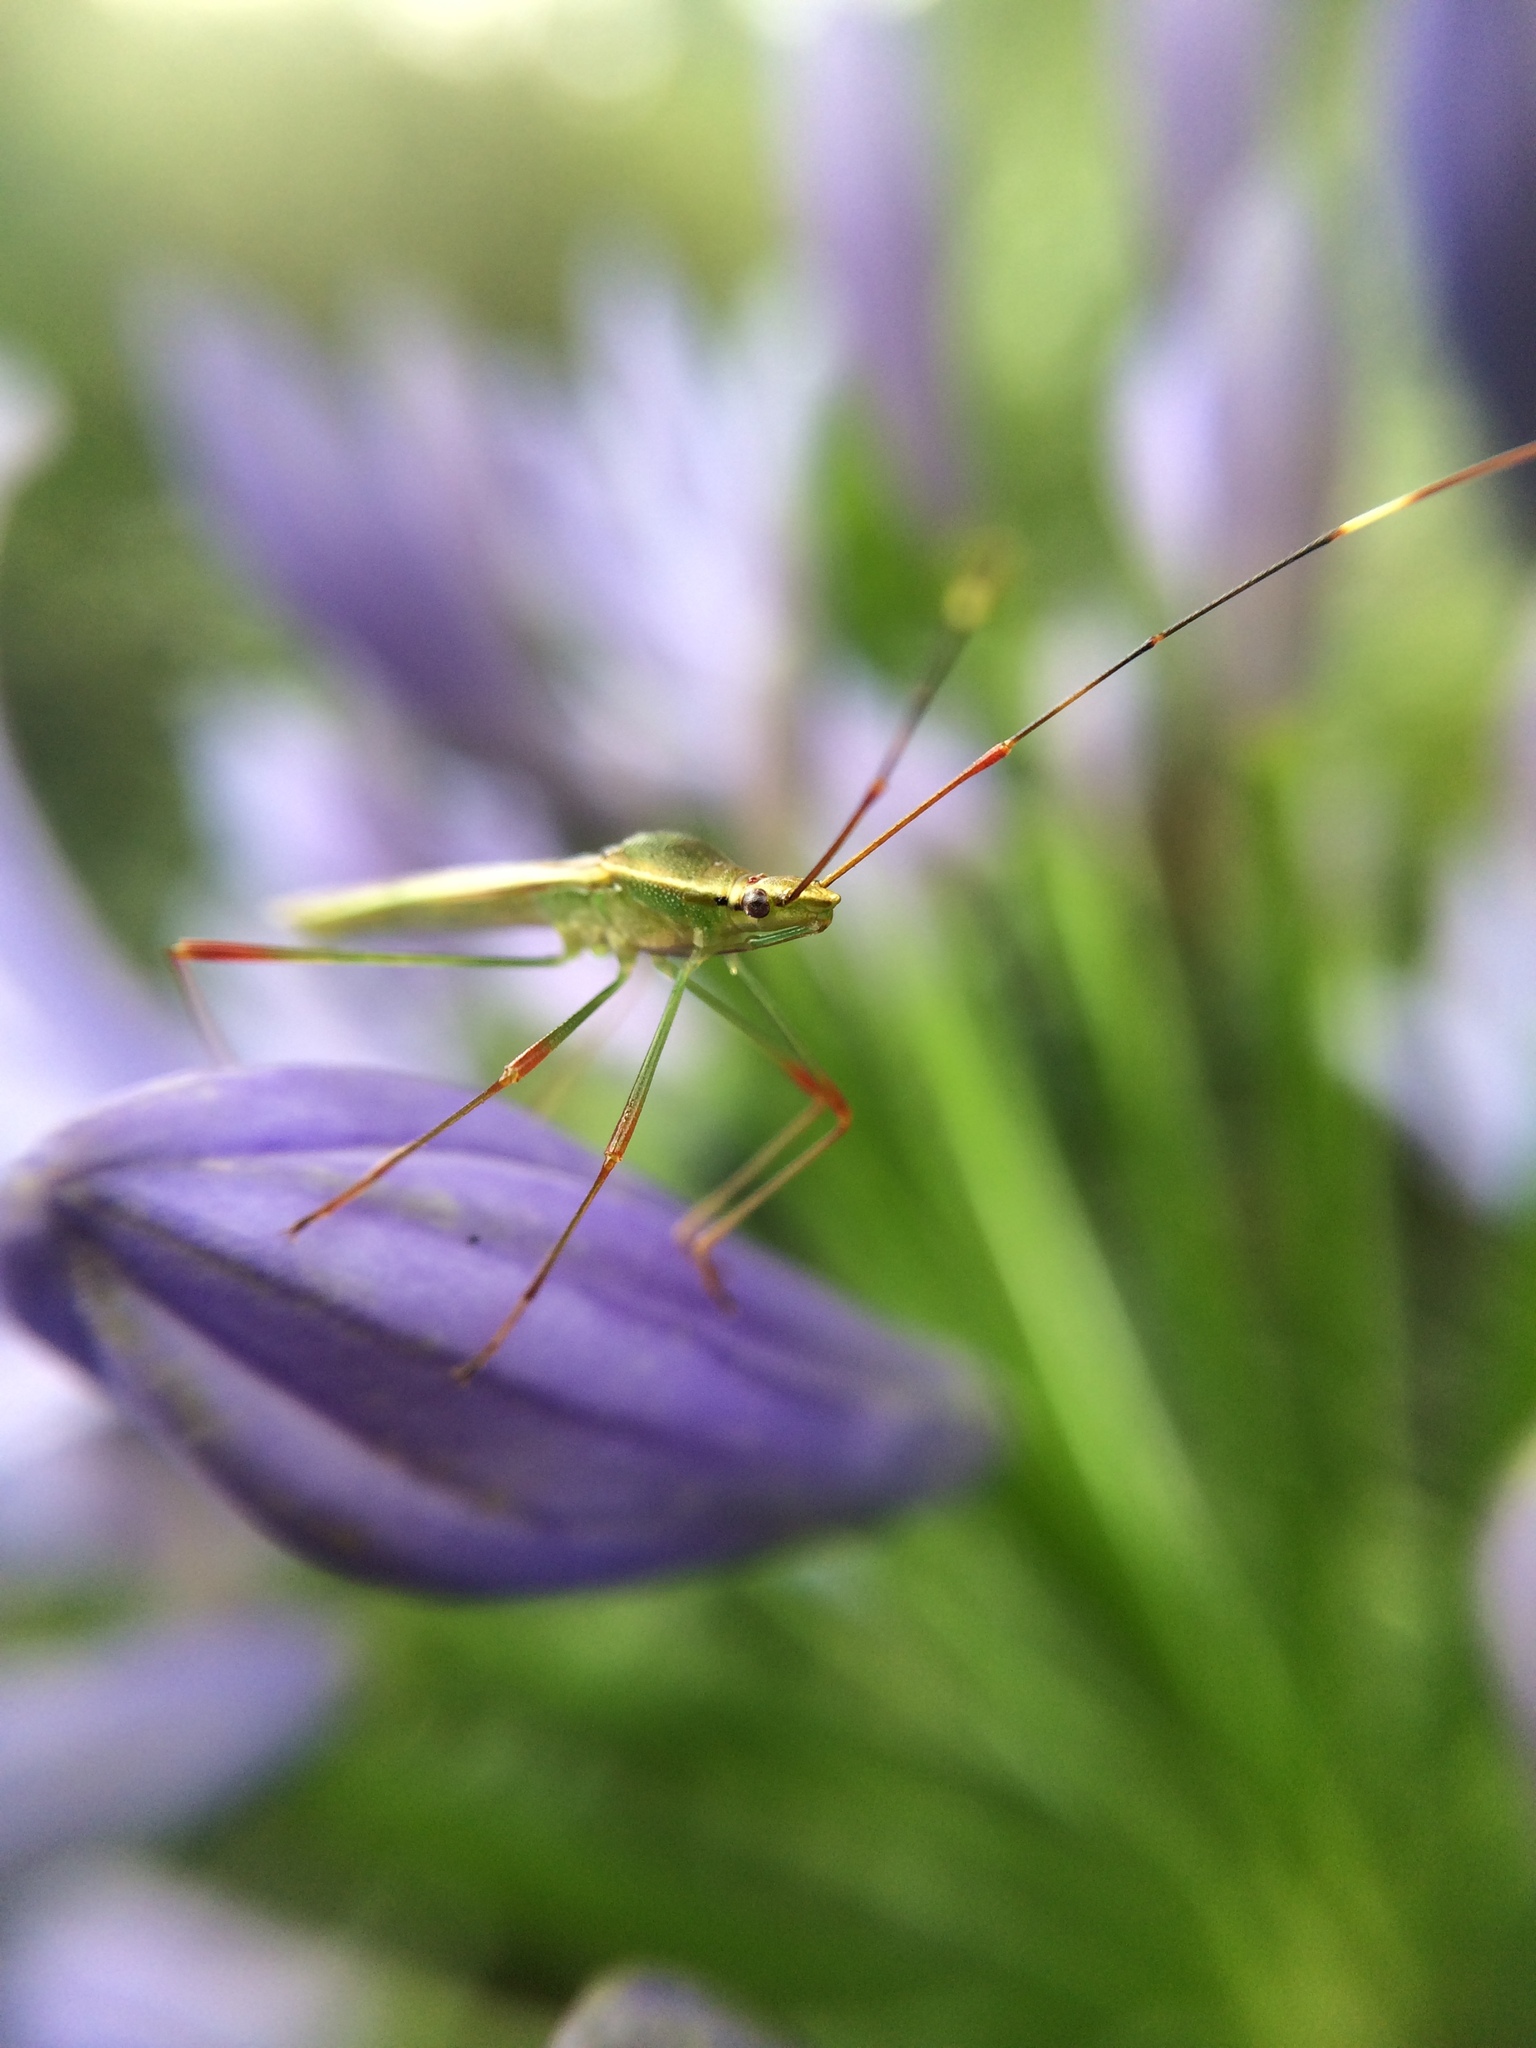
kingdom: Animalia
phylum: Arthropoda
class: Insecta
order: Hemiptera
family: Alydidae
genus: Stenocoris
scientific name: Stenocoris apicalis
